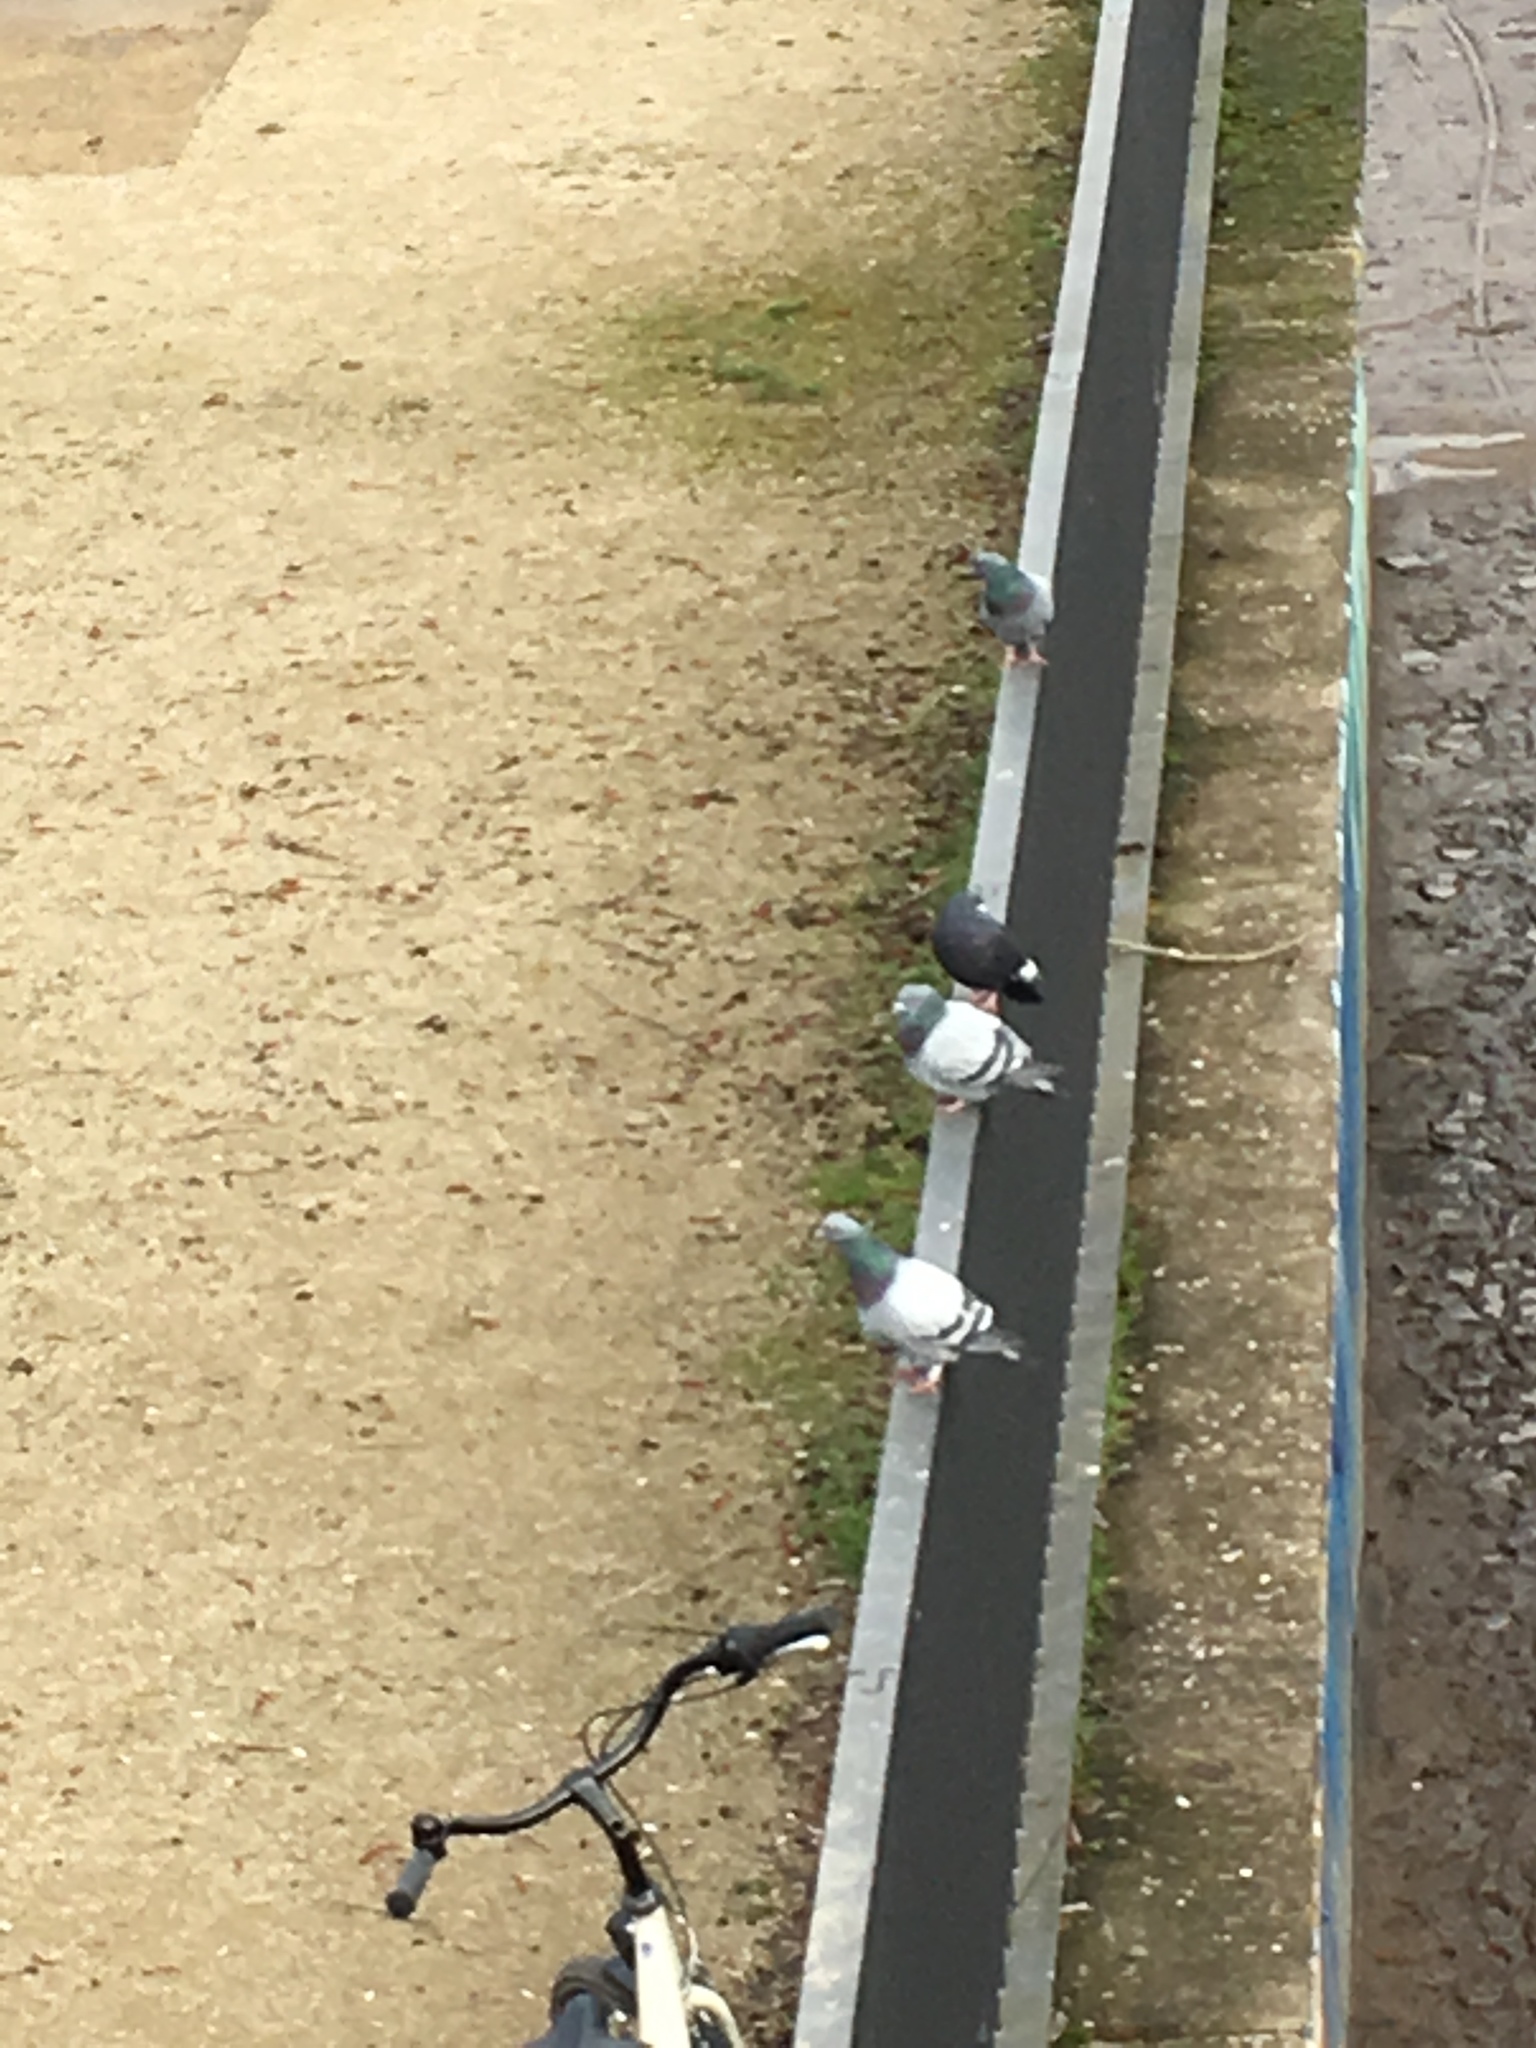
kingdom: Animalia
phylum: Chordata
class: Aves
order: Columbiformes
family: Columbidae
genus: Columba
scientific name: Columba livia
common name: Rock pigeon
